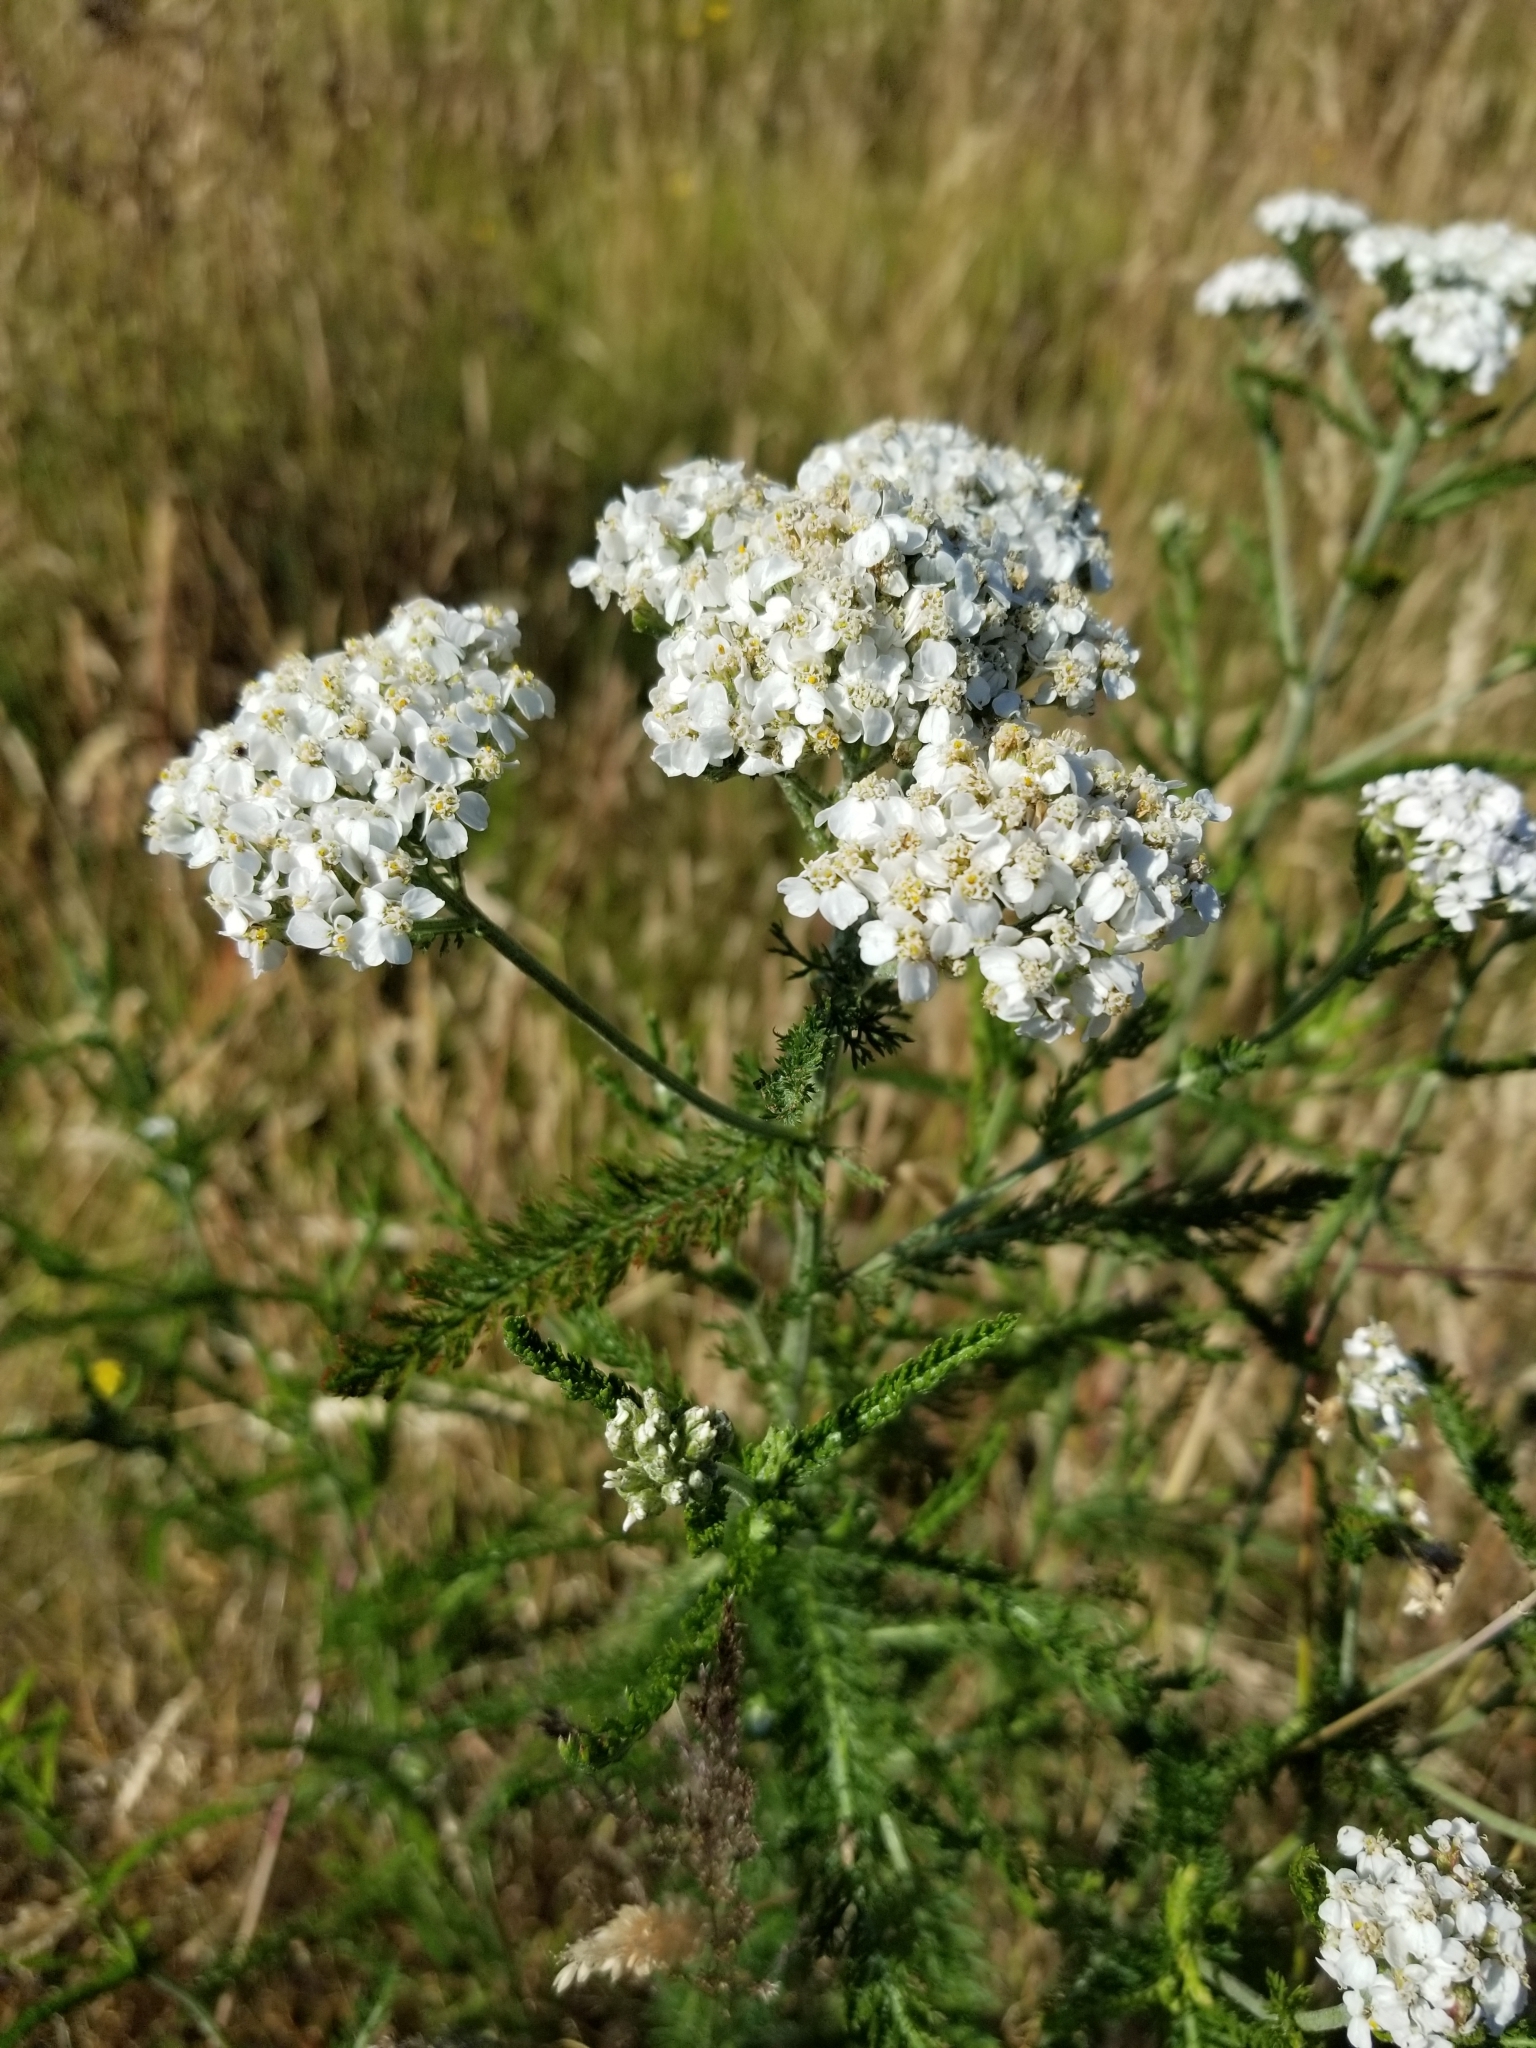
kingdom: Plantae
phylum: Tracheophyta
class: Magnoliopsida
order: Asterales
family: Asteraceae
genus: Achillea
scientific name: Achillea millefolium
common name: Yarrow
